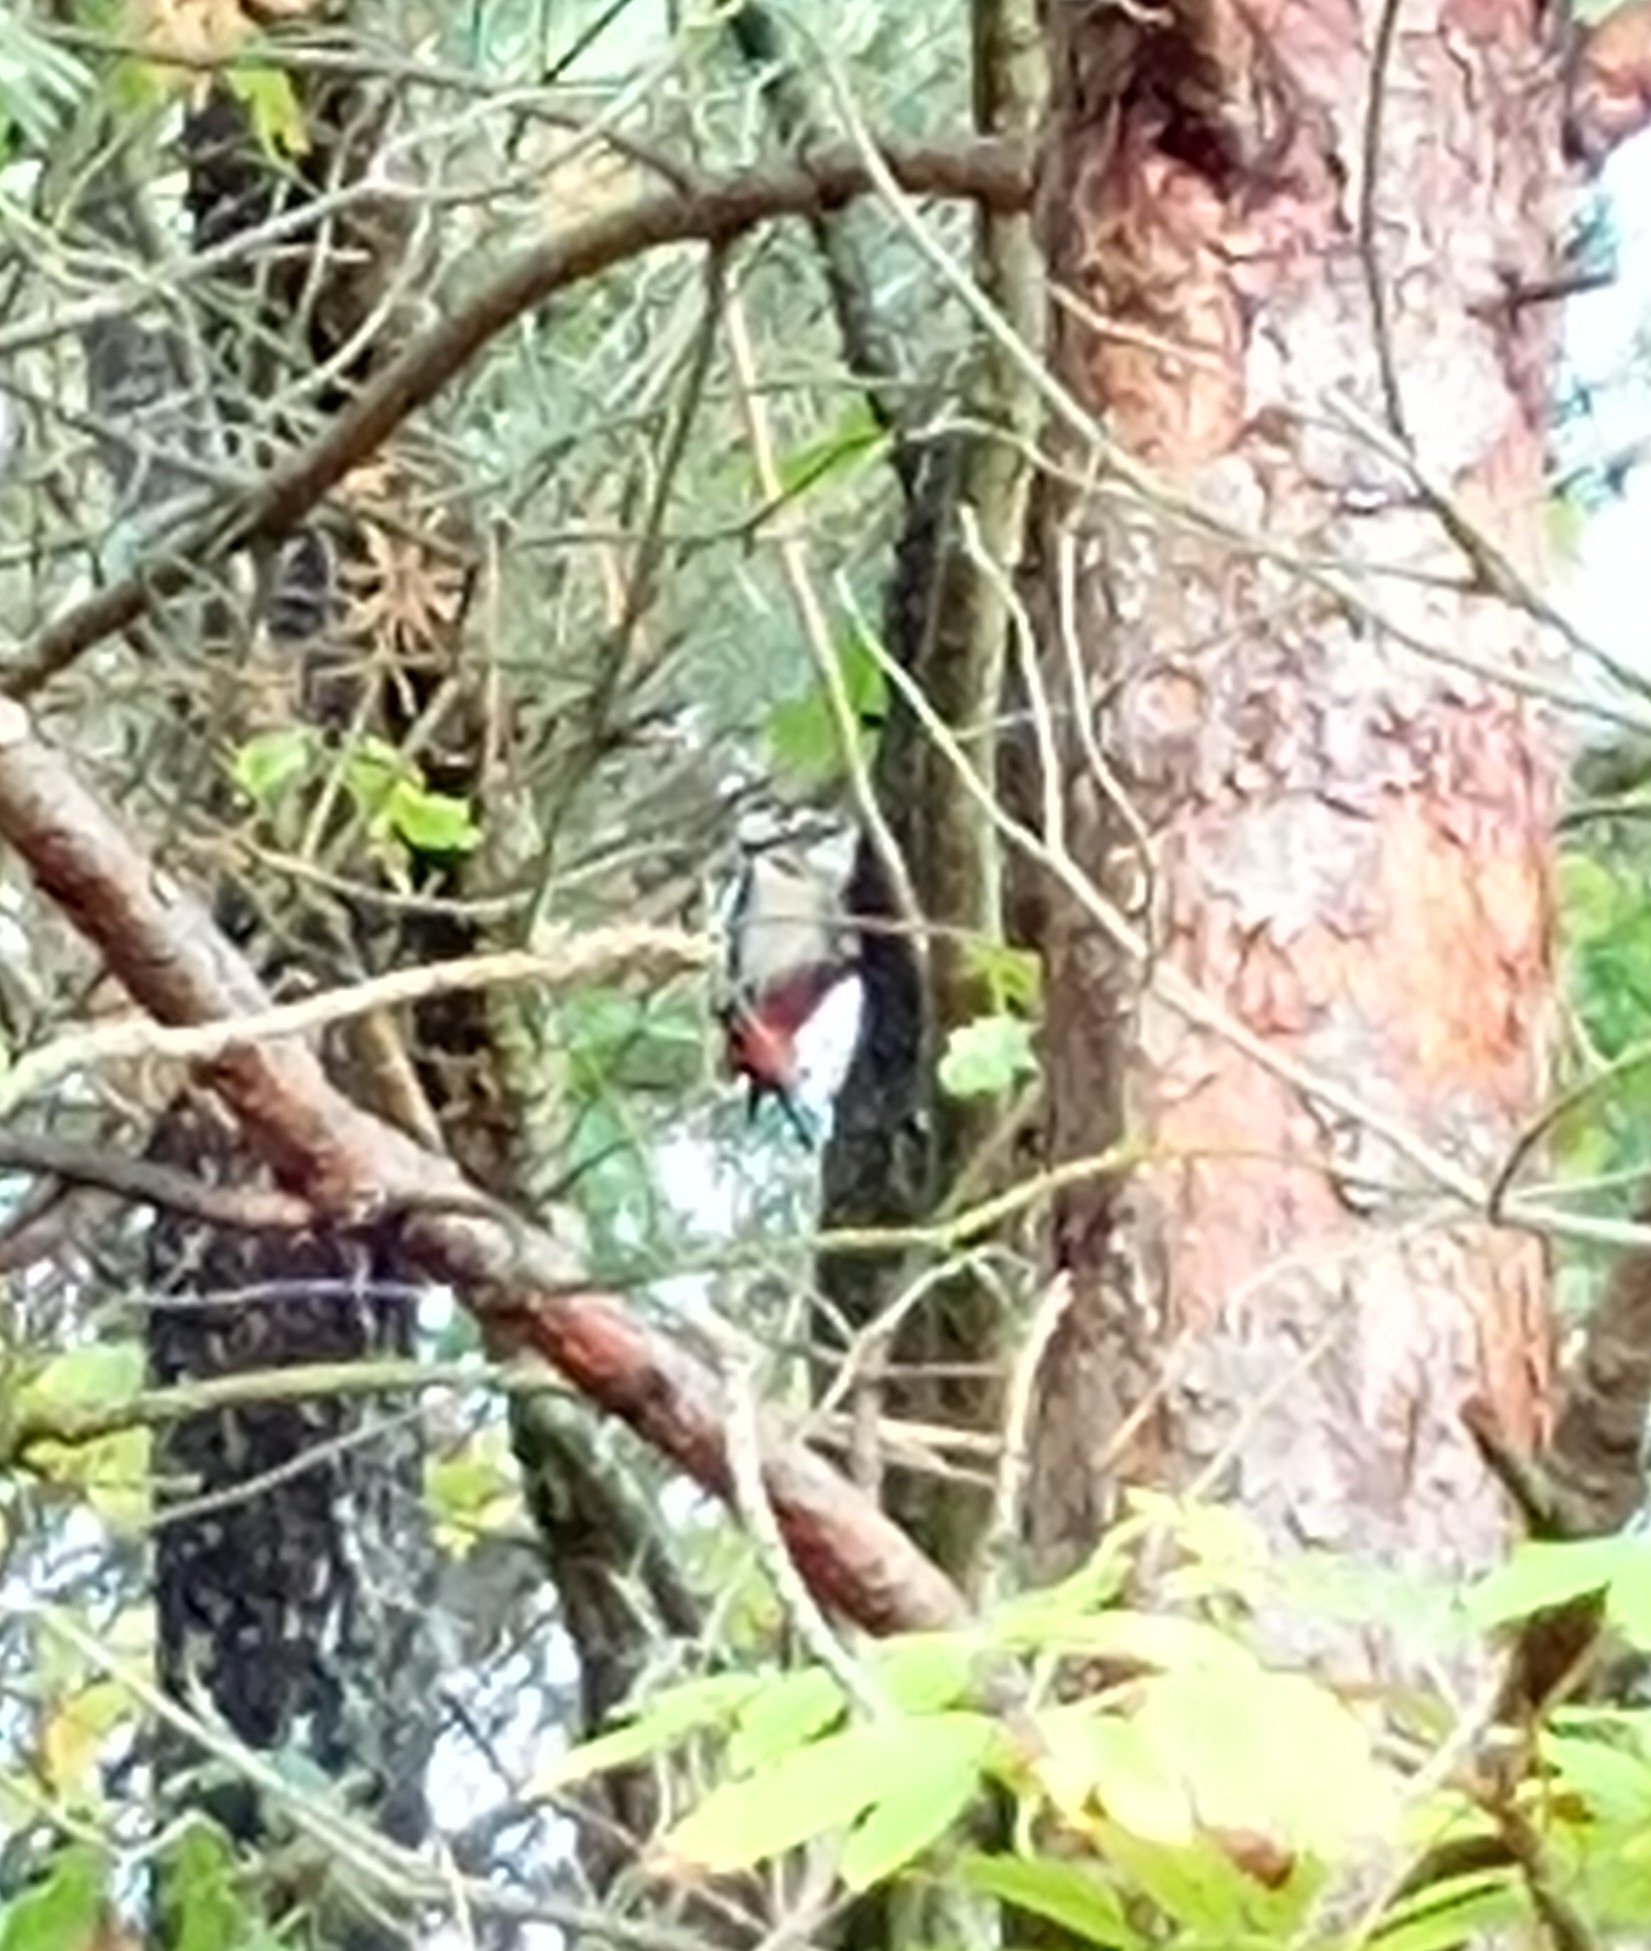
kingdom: Animalia
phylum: Chordata
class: Aves
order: Piciformes
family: Picidae
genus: Dendrocopos
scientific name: Dendrocopos major
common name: Great spotted woodpecker
